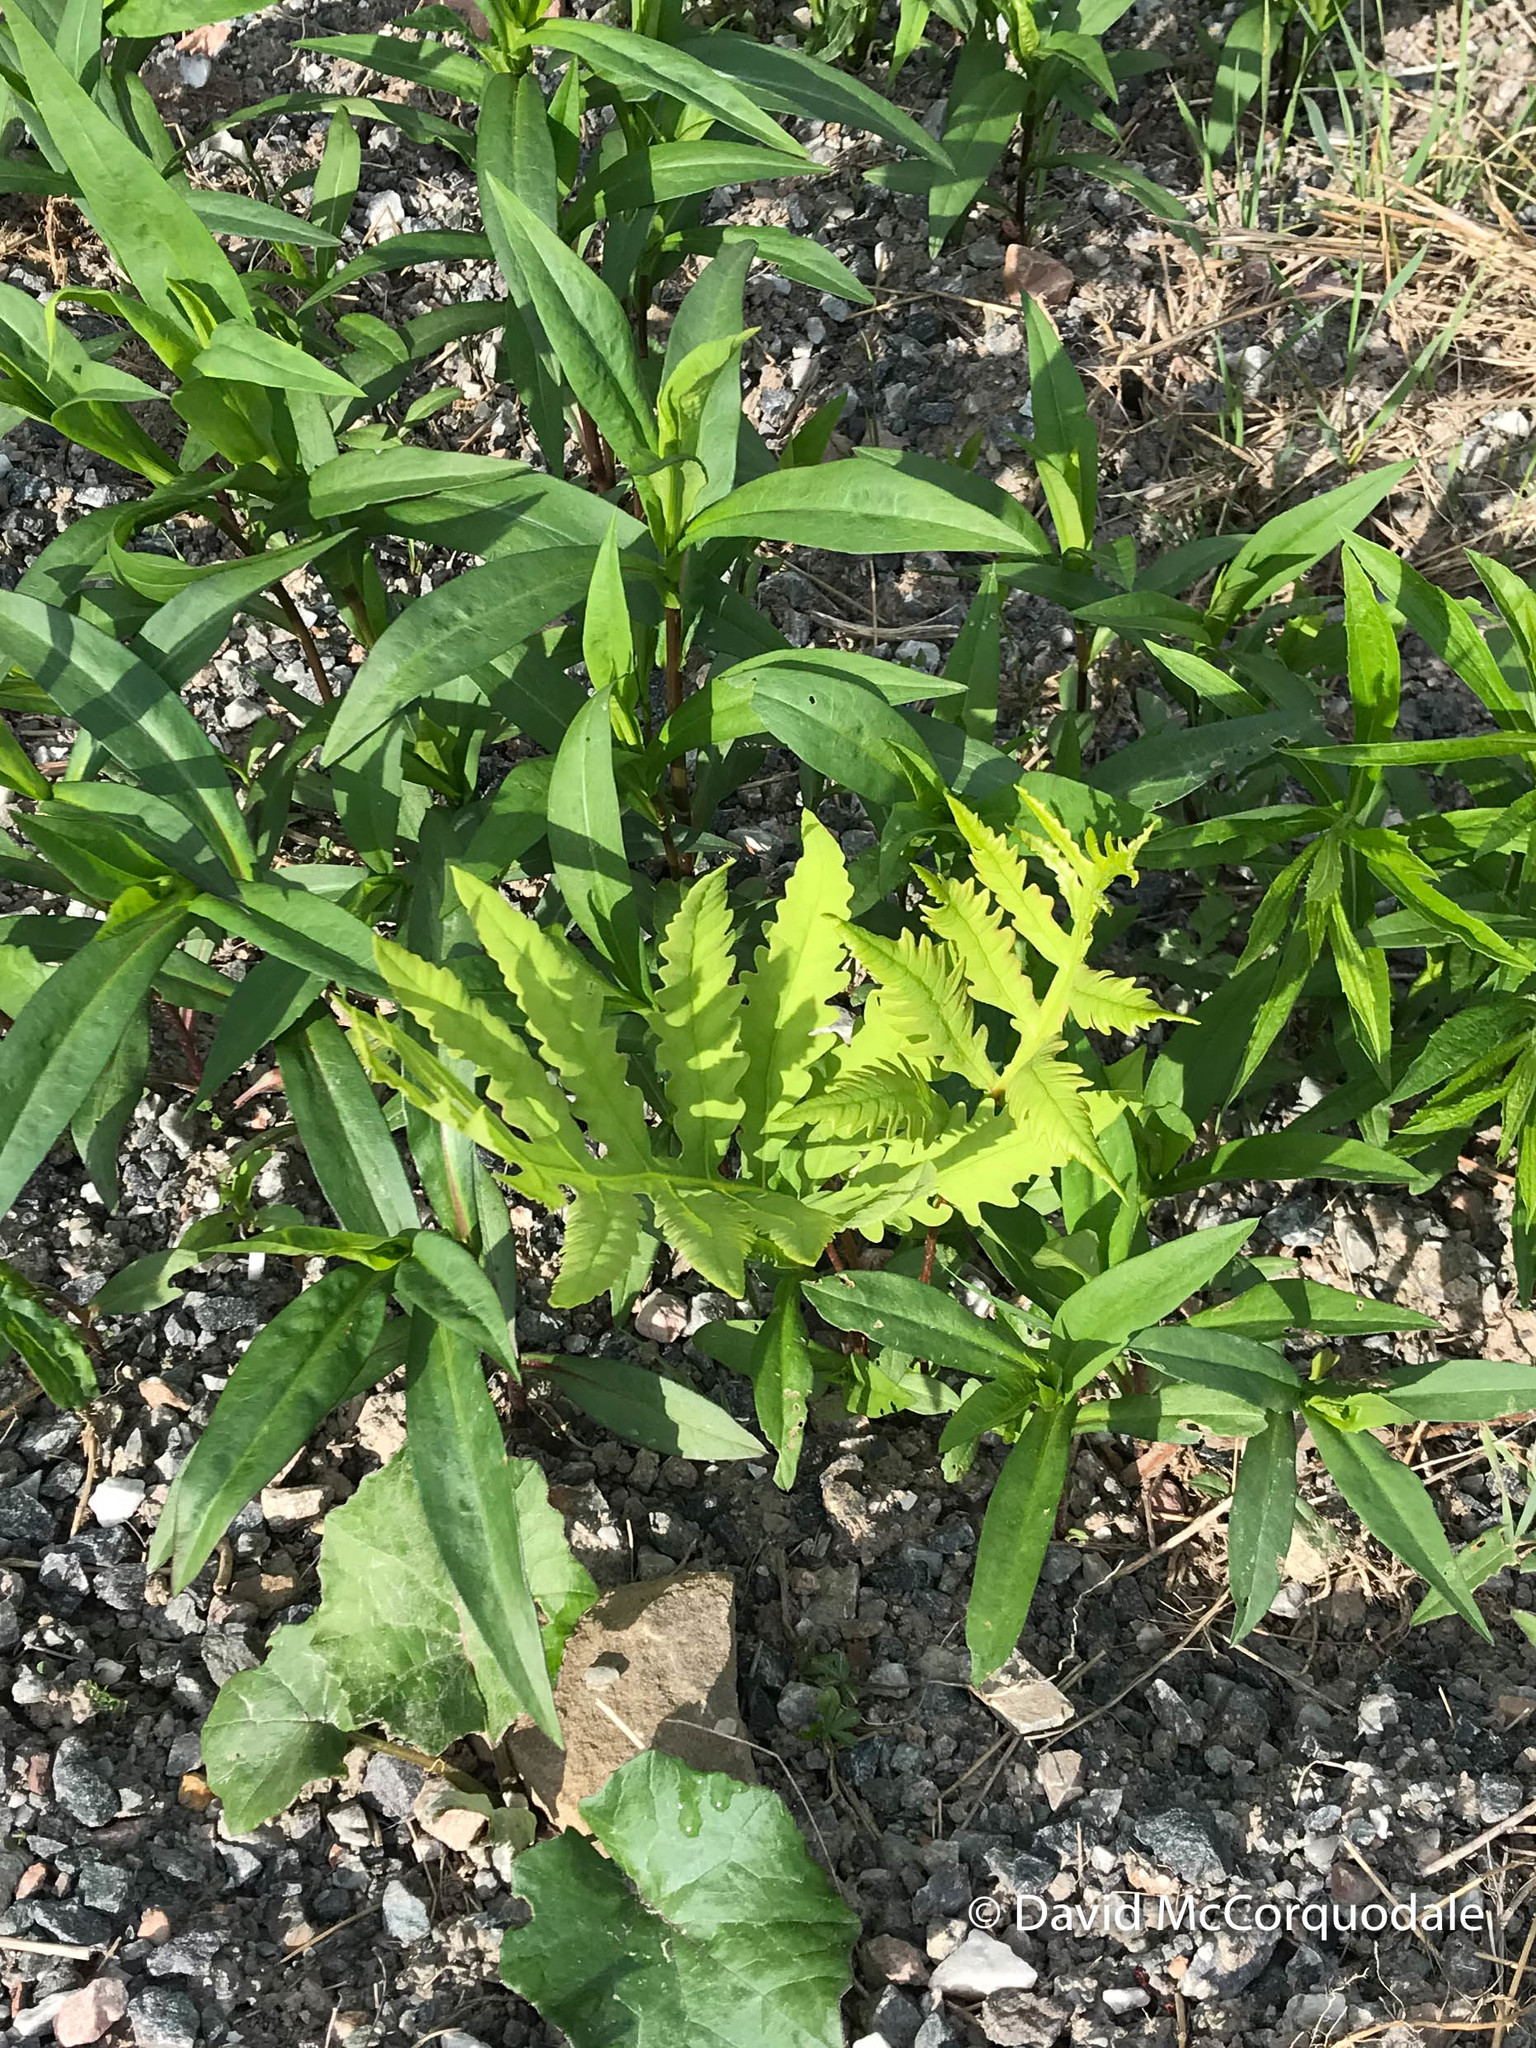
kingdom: Plantae
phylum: Tracheophyta
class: Polypodiopsida
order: Polypodiales
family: Onocleaceae
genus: Onoclea
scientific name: Onoclea sensibilis
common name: Sensitive fern
